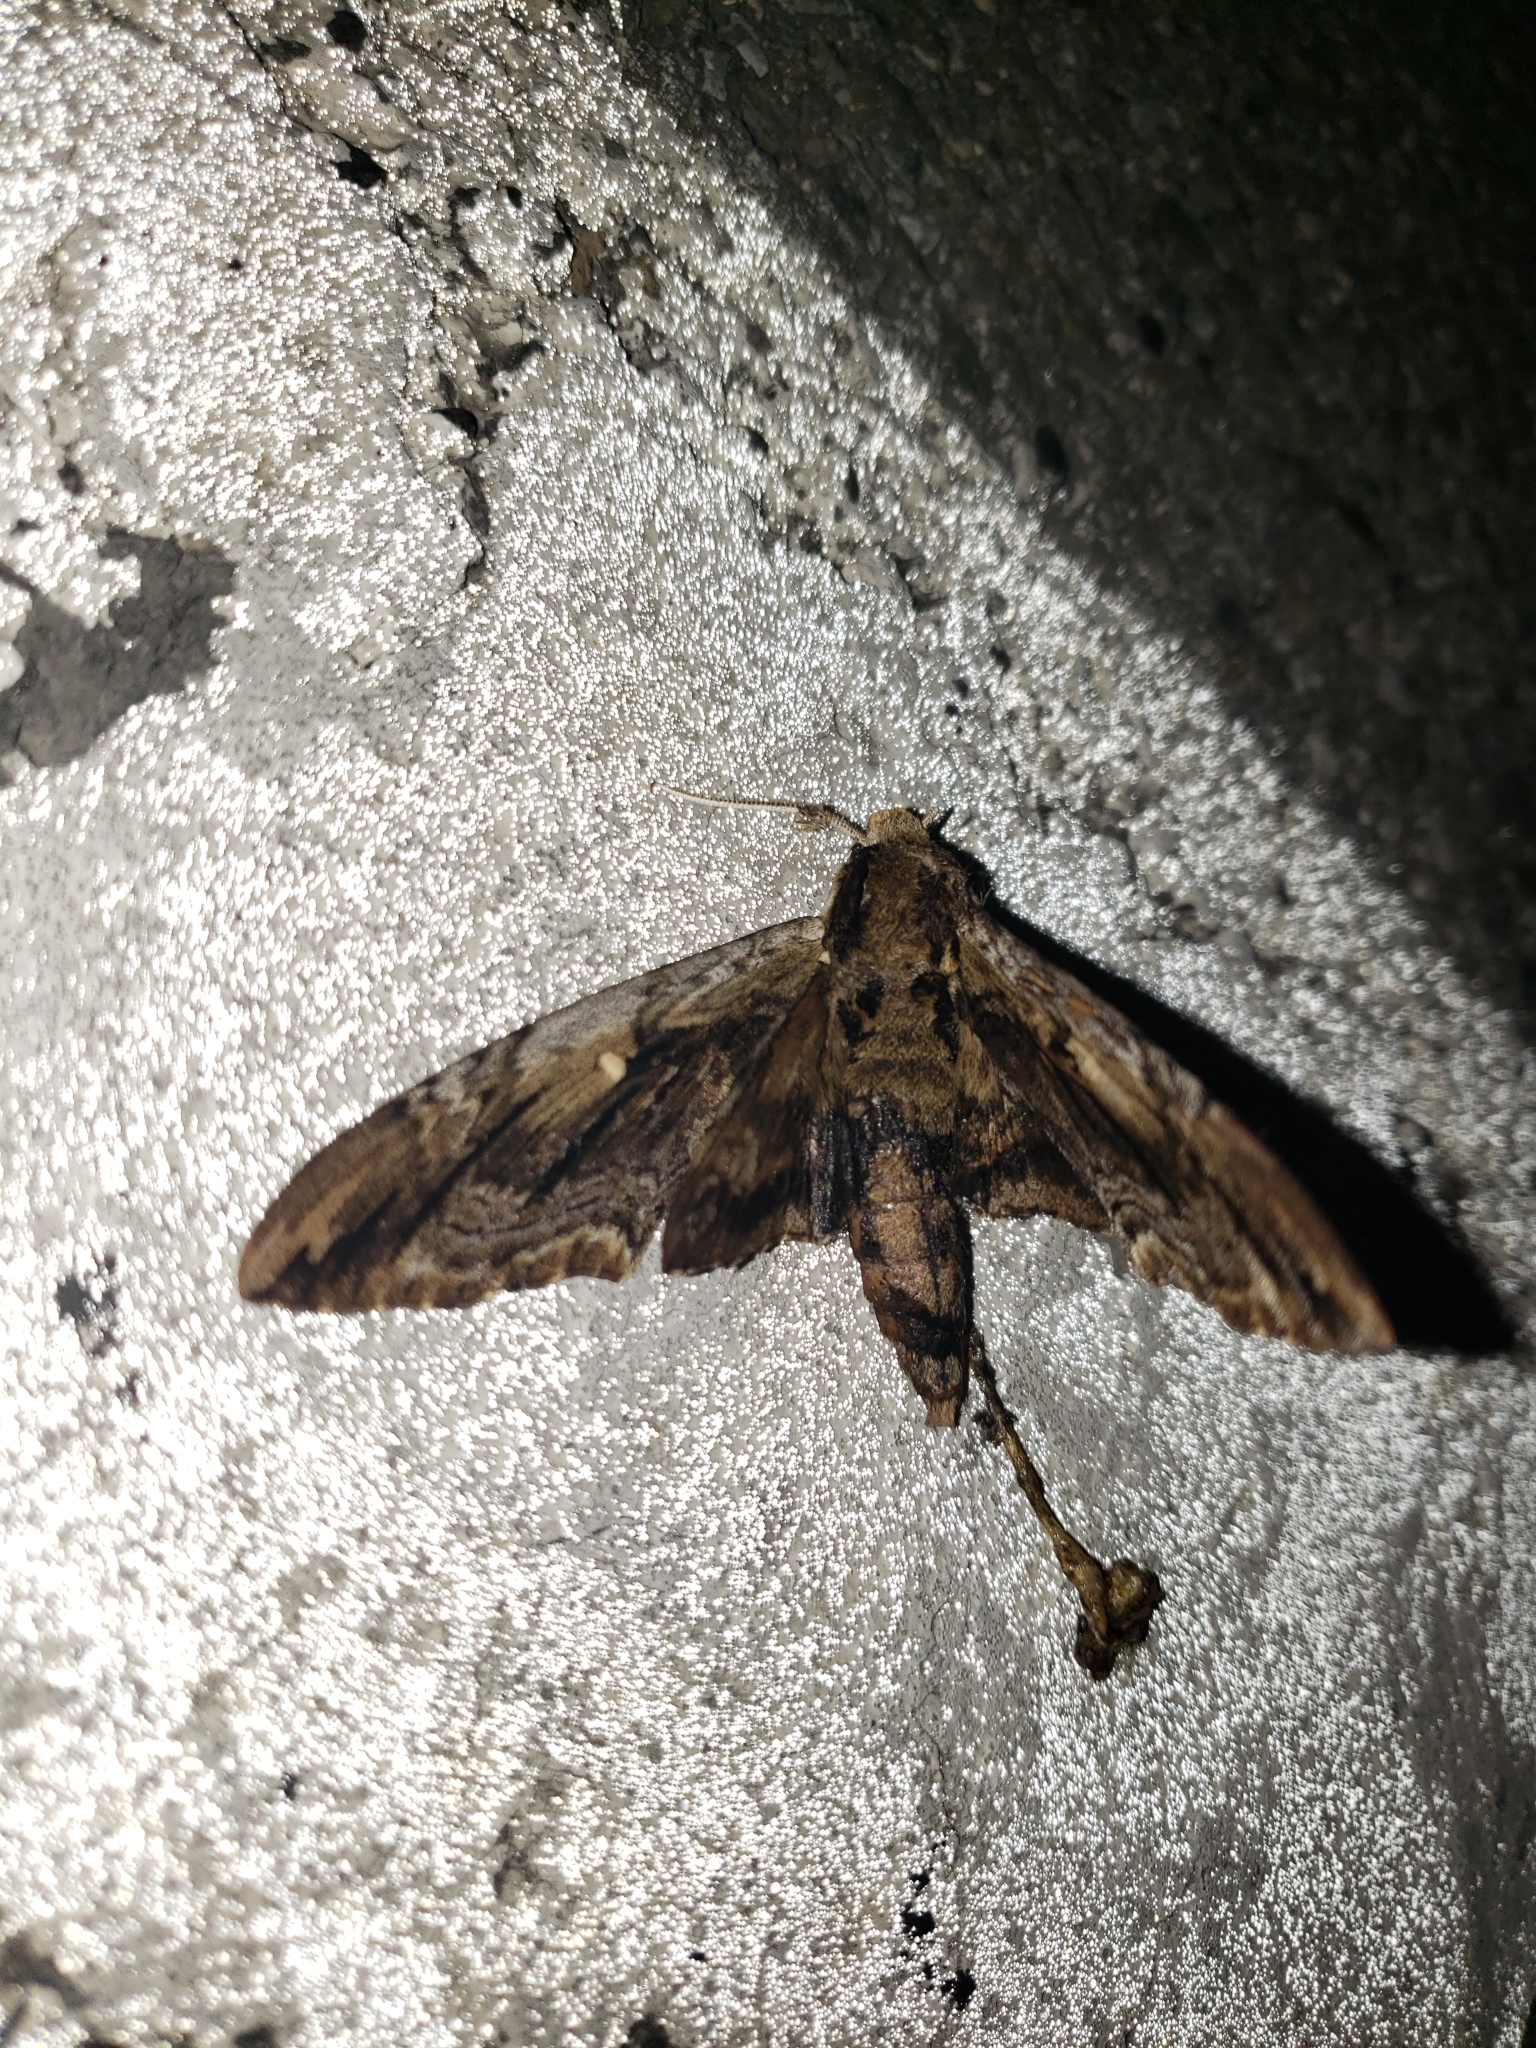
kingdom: Animalia
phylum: Arthropoda
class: Insecta
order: Lepidoptera
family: Sphingidae
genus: Ceratomia
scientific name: Ceratomia amyntor
